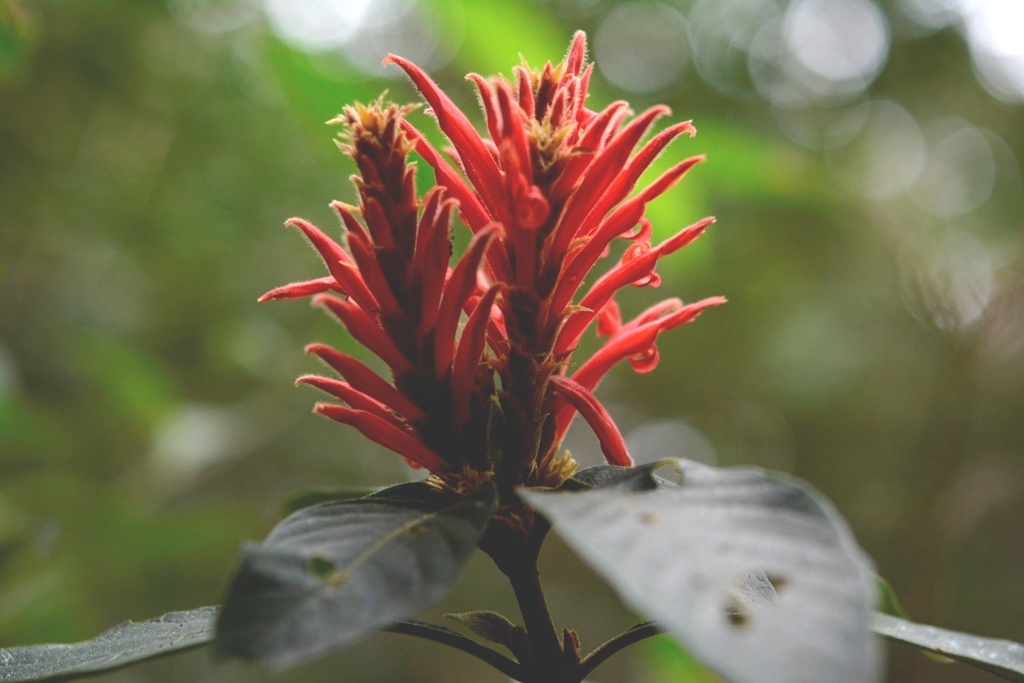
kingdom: Plantae
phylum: Tracheophyta
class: Magnoliopsida
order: Lamiales
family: Acanthaceae
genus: Aphelandra
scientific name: Aphelandra scabra
